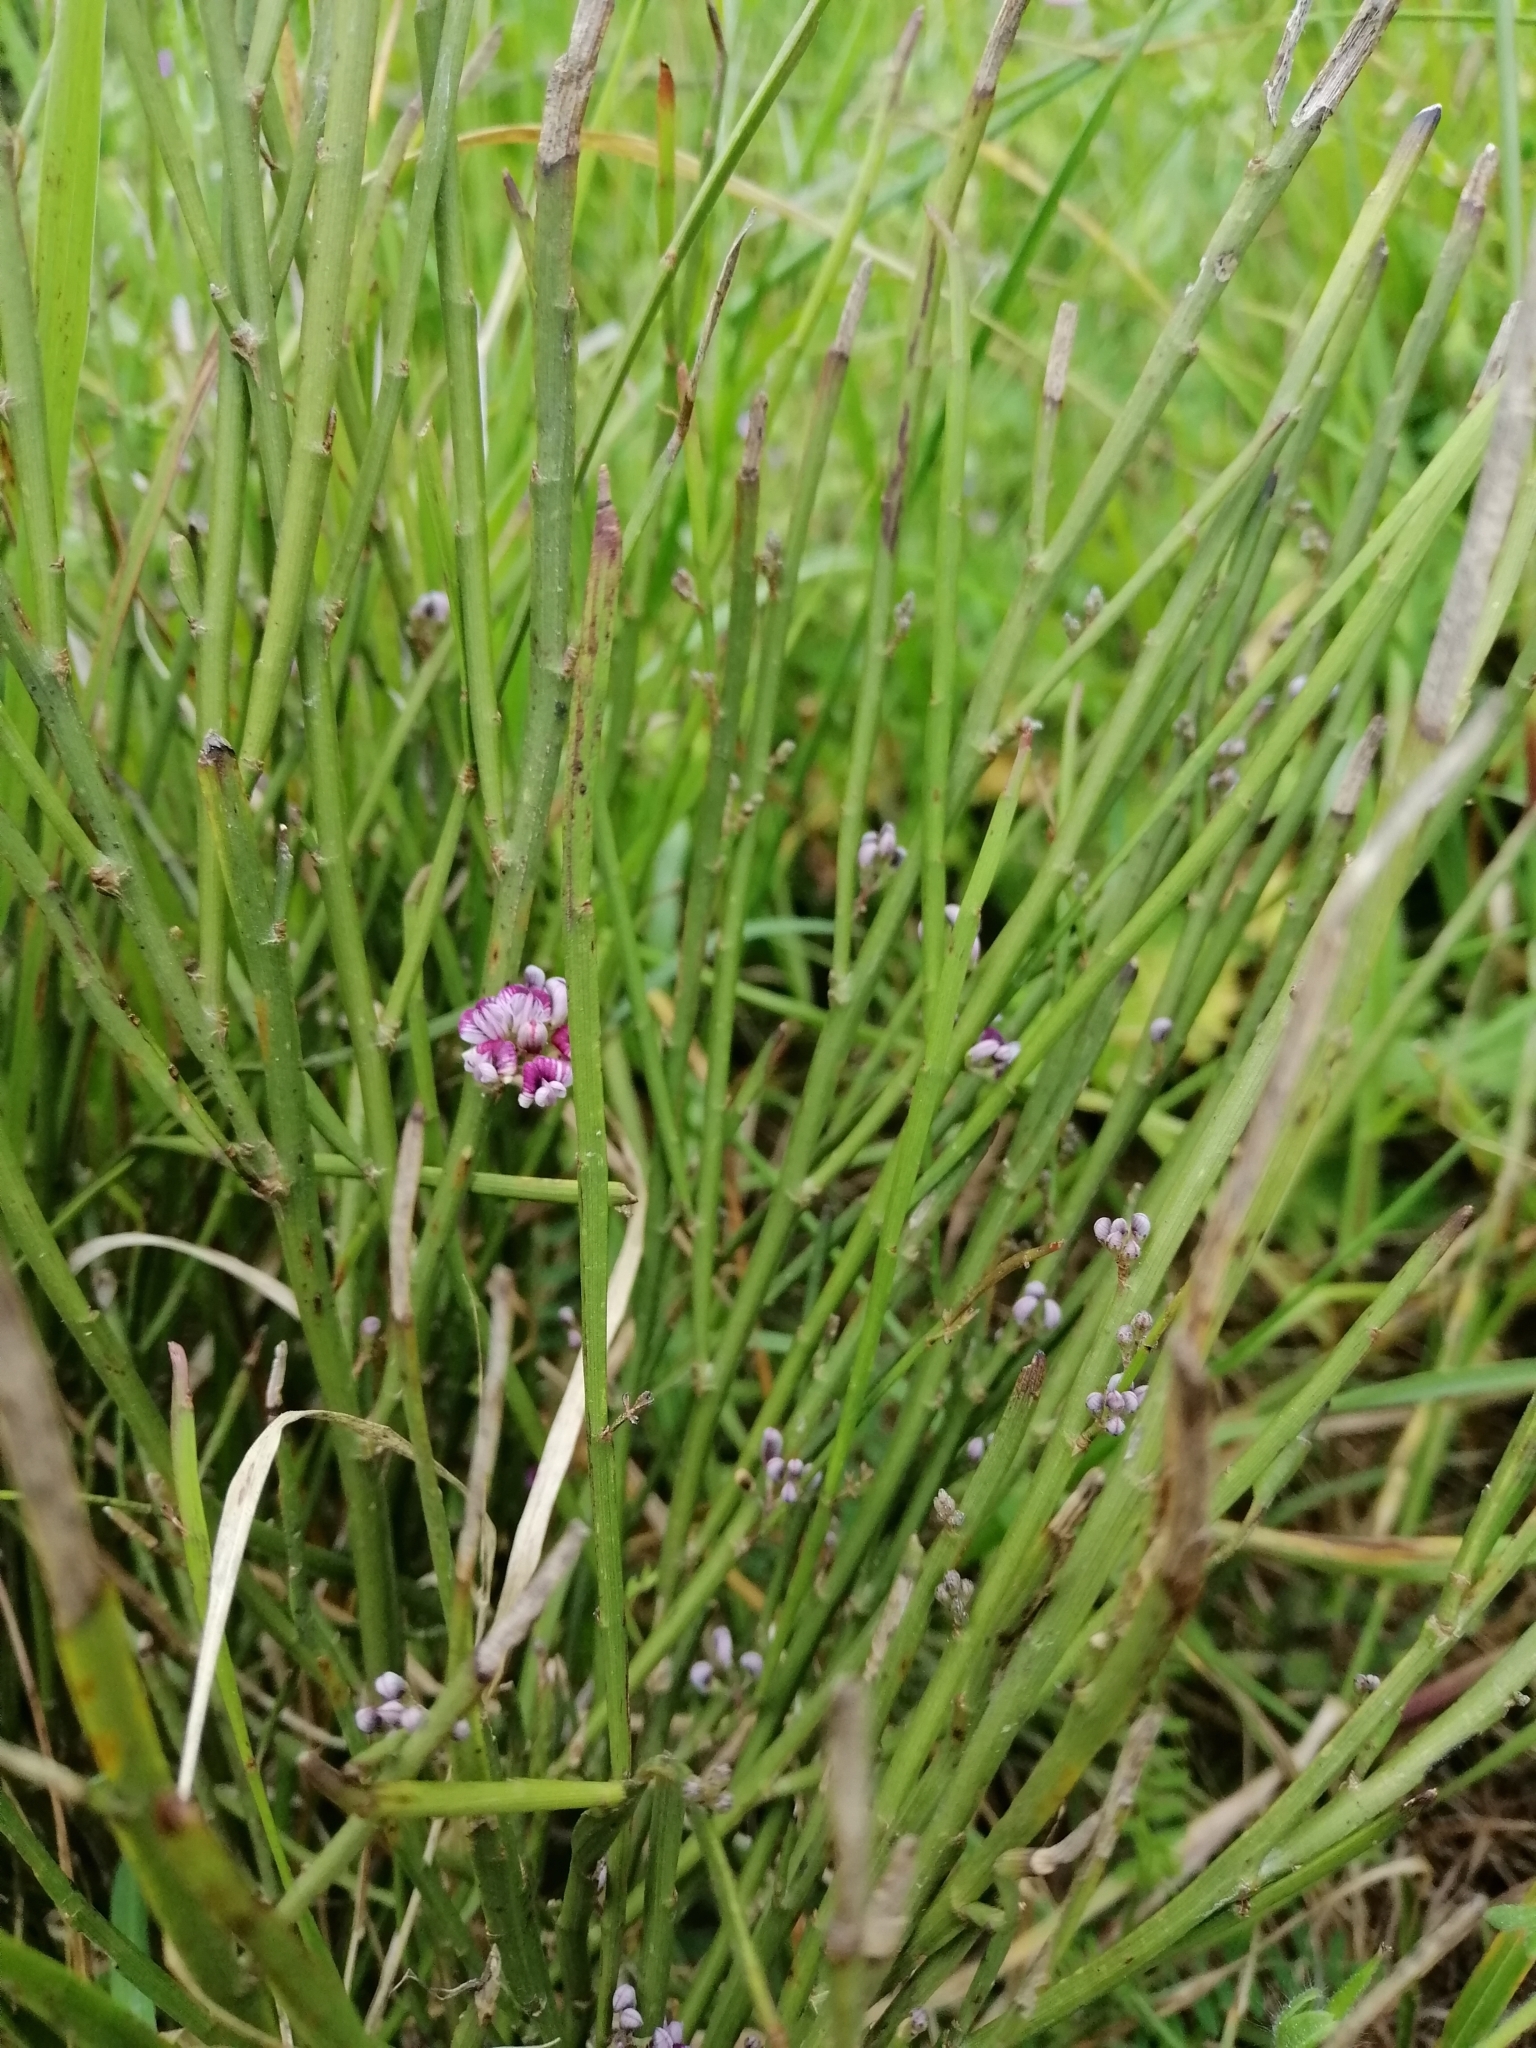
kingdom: Plantae
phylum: Tracheophyta
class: Magnoliopsida
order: Fabales
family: Fabaceae
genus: Carmichaelia
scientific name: Carmichaelia australis
